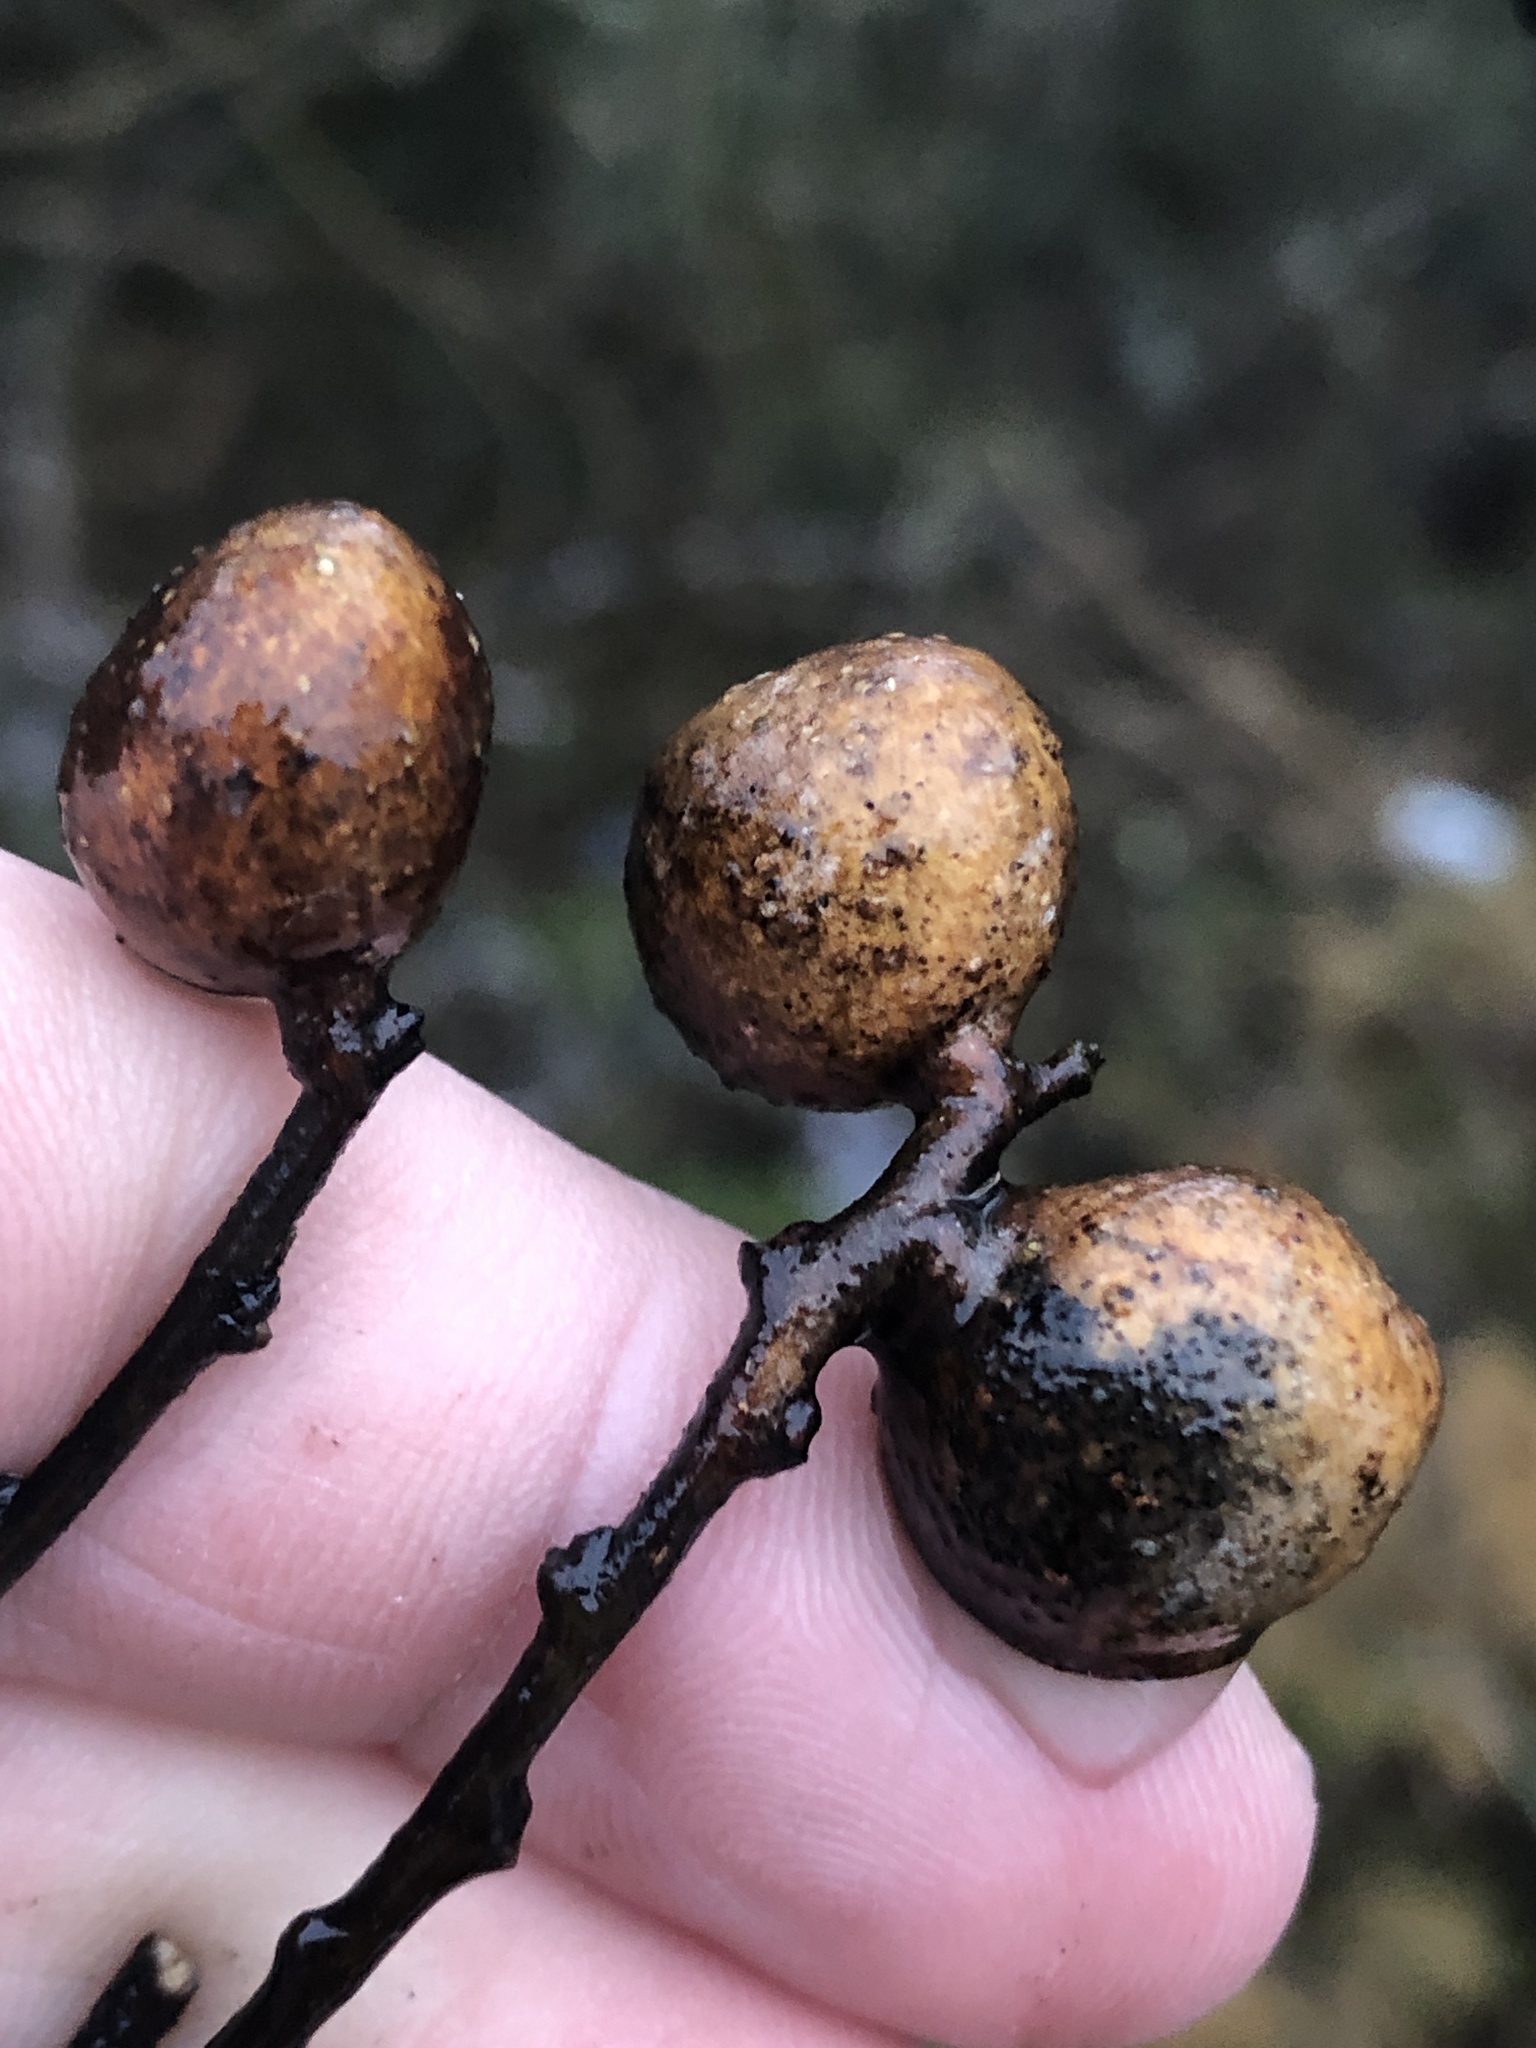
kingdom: Animalia
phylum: Arthropoda
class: Insecta
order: Hemiptera
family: Aphalaridae
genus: Pachypsylla
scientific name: Pachypsylla venusta
